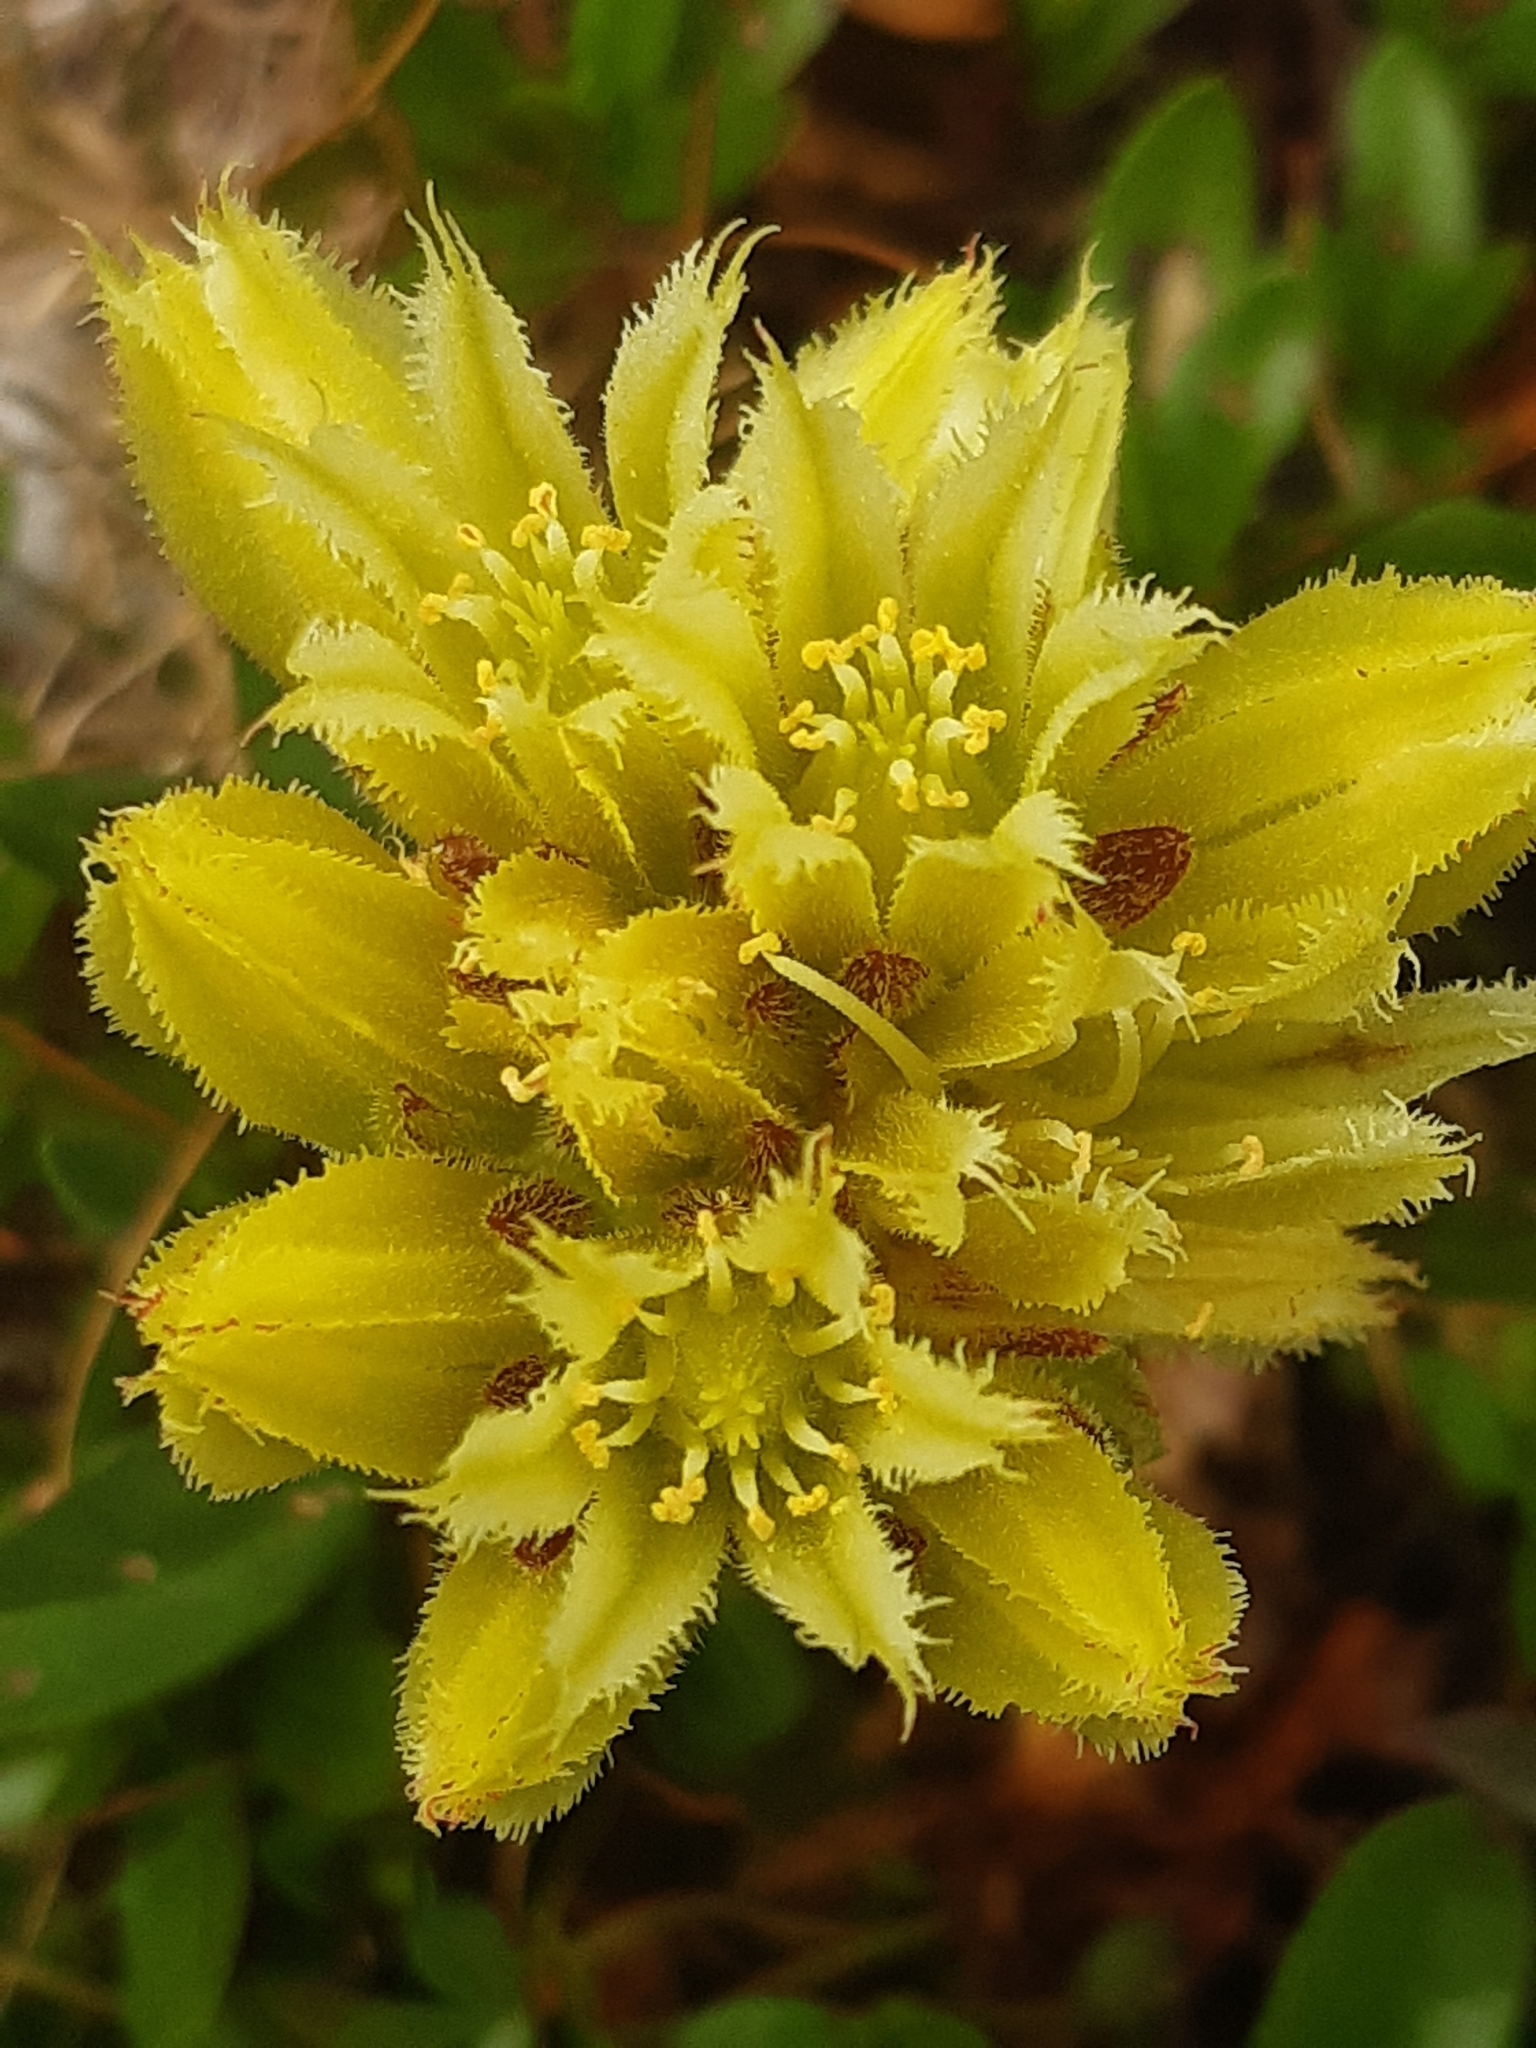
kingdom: Plantae
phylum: Tracheophyta
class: Magnoliopsida
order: Saxifragales
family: Crassulaceae
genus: Sempervivum
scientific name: Sempervivum globiferum
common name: Rolling hen-and-chicks
